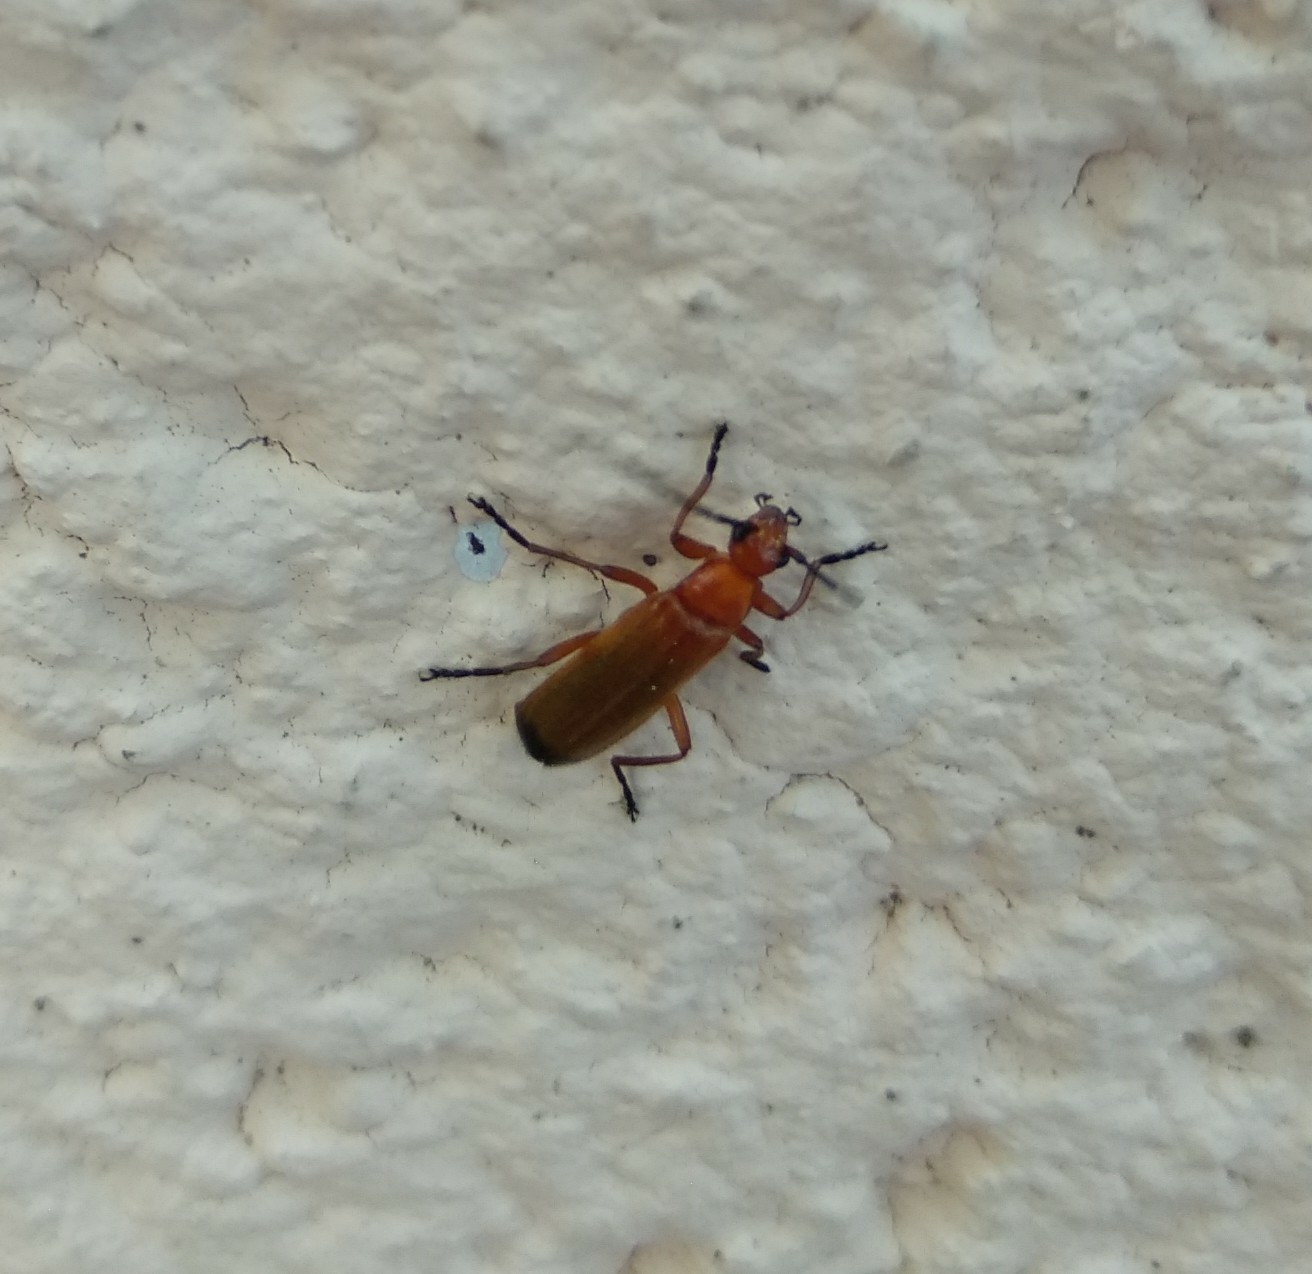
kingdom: Animalia
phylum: Arthropoda
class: Insecta
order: Coleoptera
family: Cantharidae
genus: Rhagonycha
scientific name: Rhagonycha fulva
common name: Common red soldier beetle
